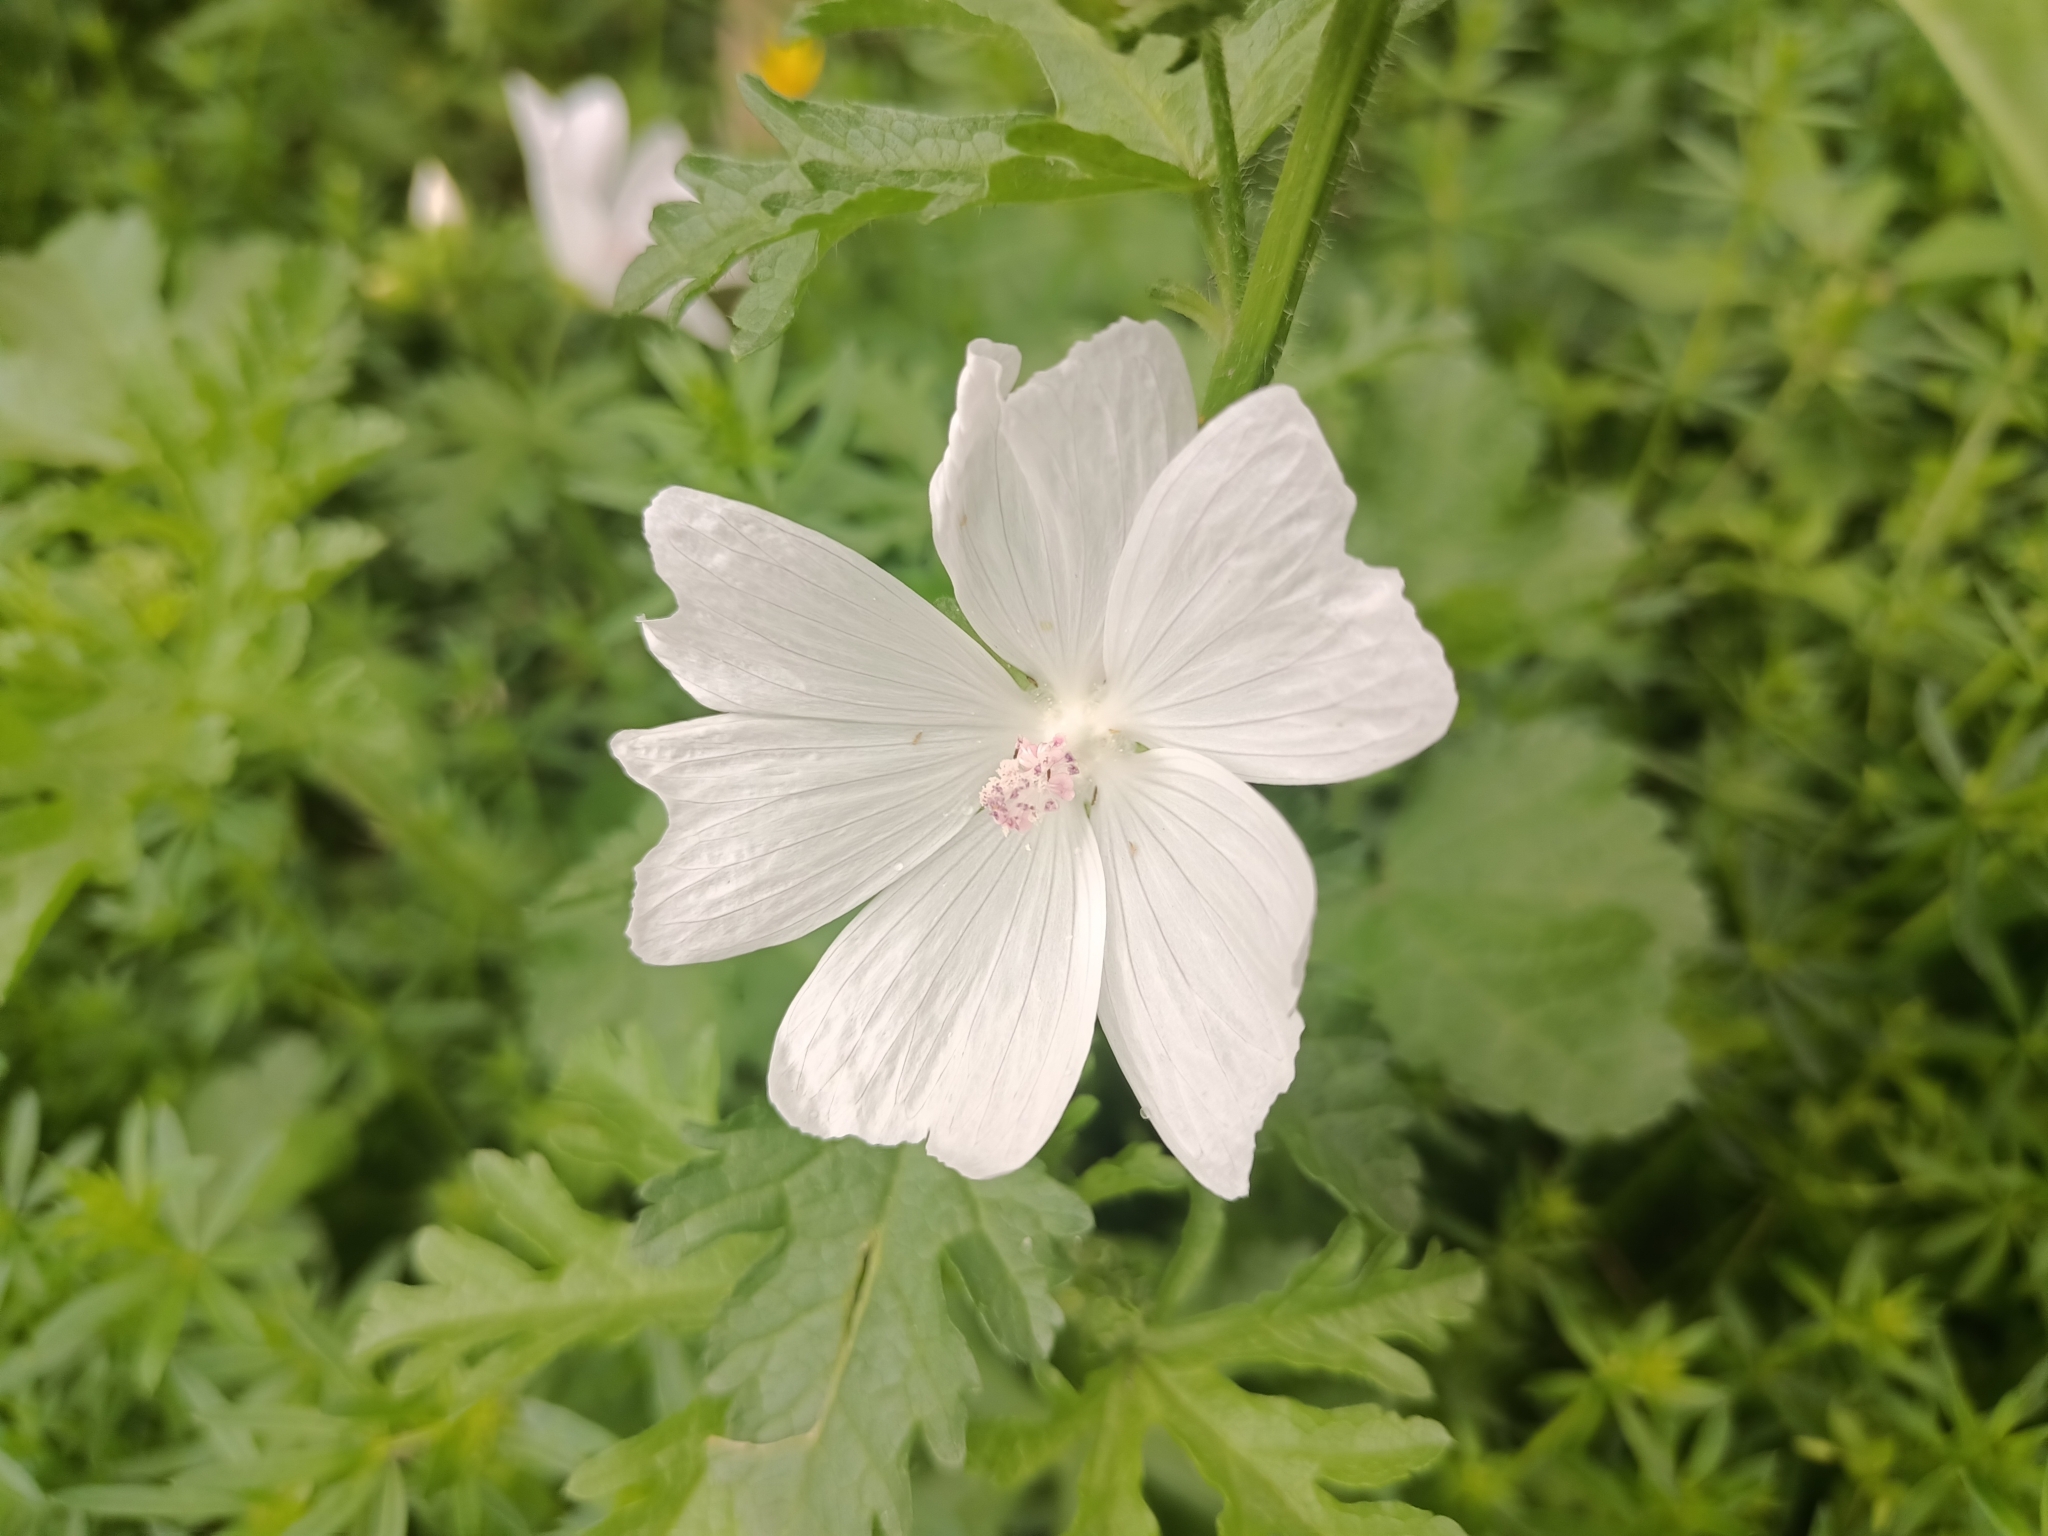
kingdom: Plantae
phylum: Tracheophyta
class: Magnoliopsida
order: Malvales
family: Malvaceae
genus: Malva
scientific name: Malva moschata
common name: Musk mallow
